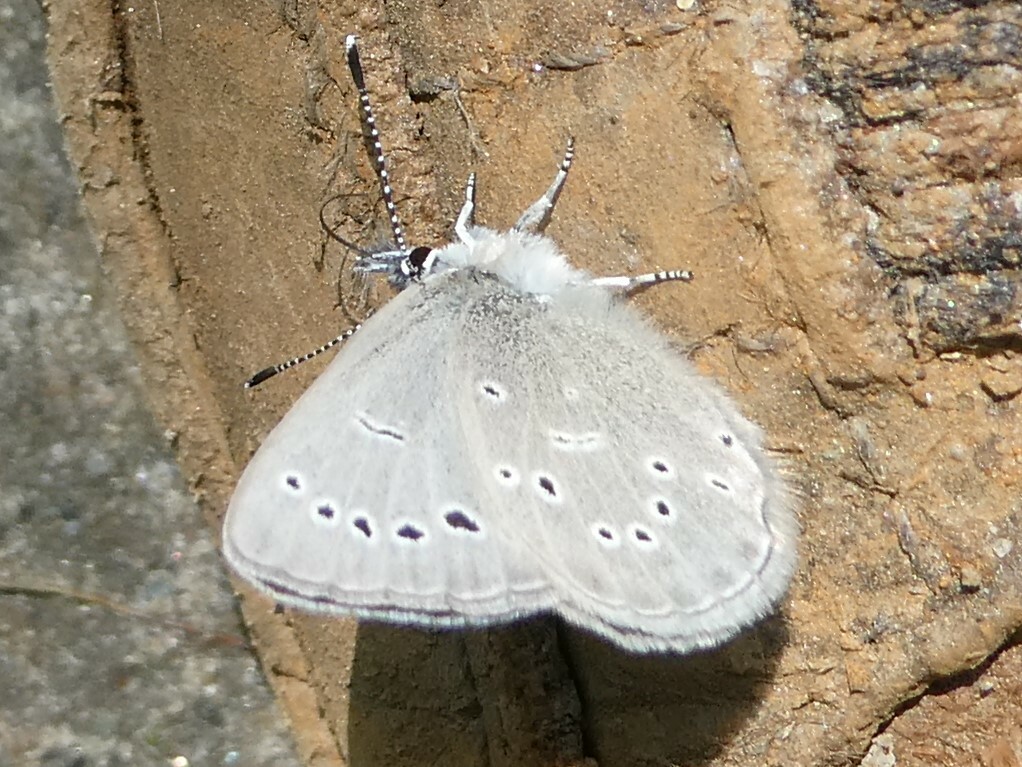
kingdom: Animalia
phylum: Arthropoda
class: Insecta
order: Lepidoptera
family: Lycaenidae
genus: Glaucopsyche
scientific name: Glaucopsyche lygdamus
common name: Silvery blue
